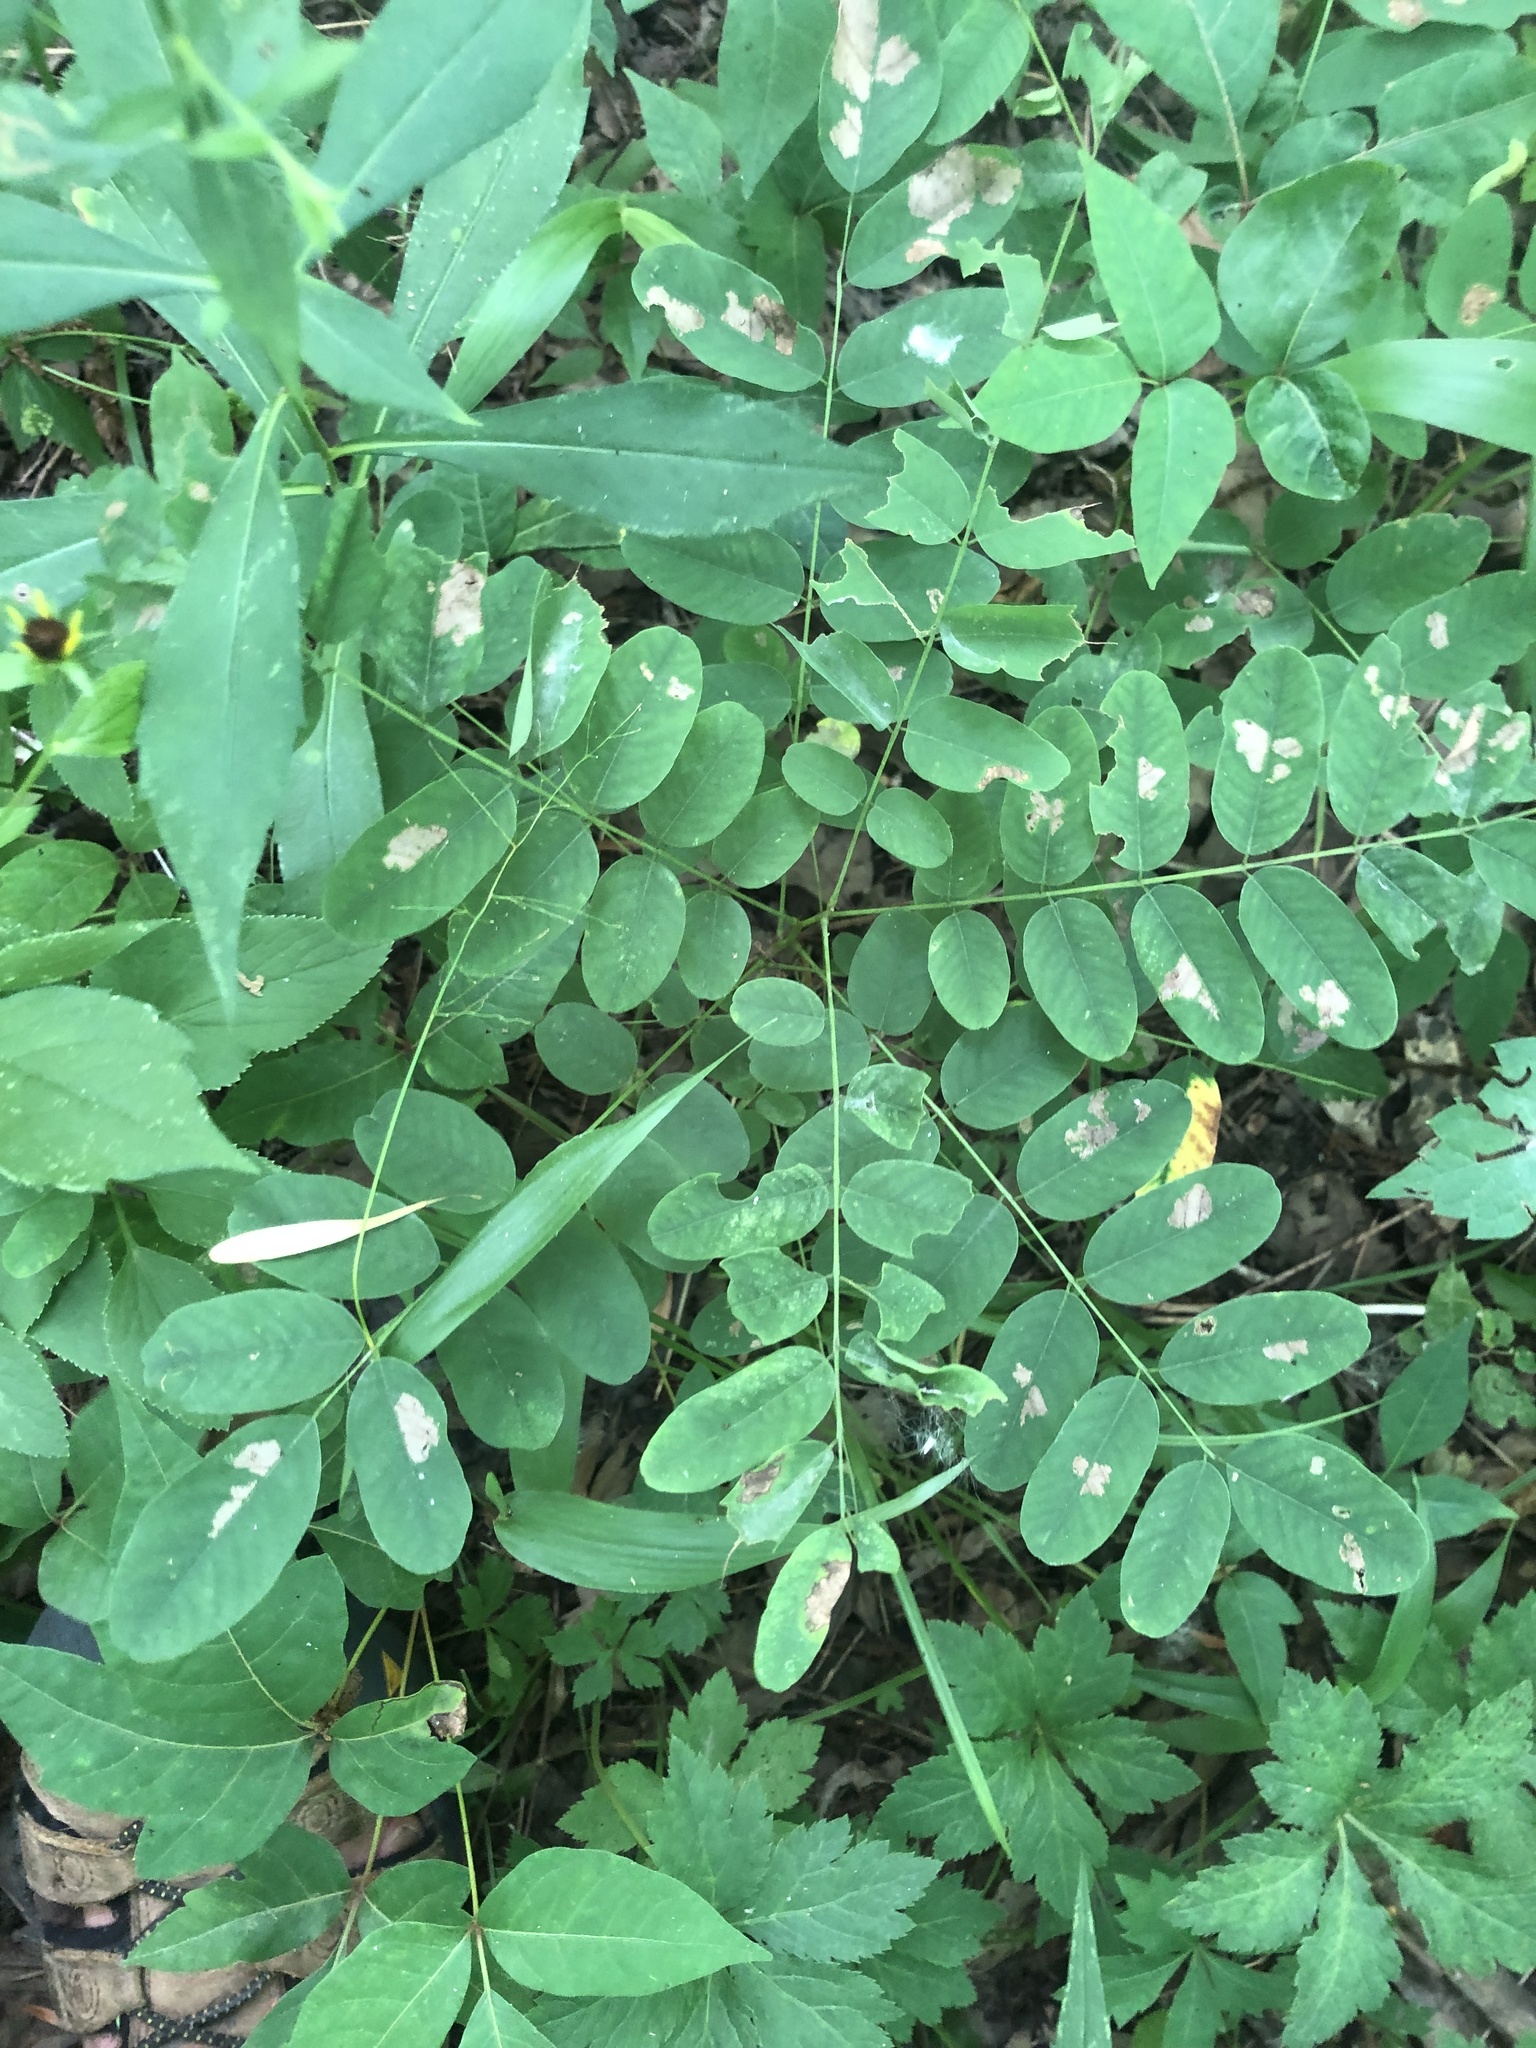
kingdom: Plantae
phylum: Tracheophyta
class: Magnoliopsida
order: Fabales
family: Fabaceae
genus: Amorpha
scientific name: Amorpha fruticosa
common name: False indigo
